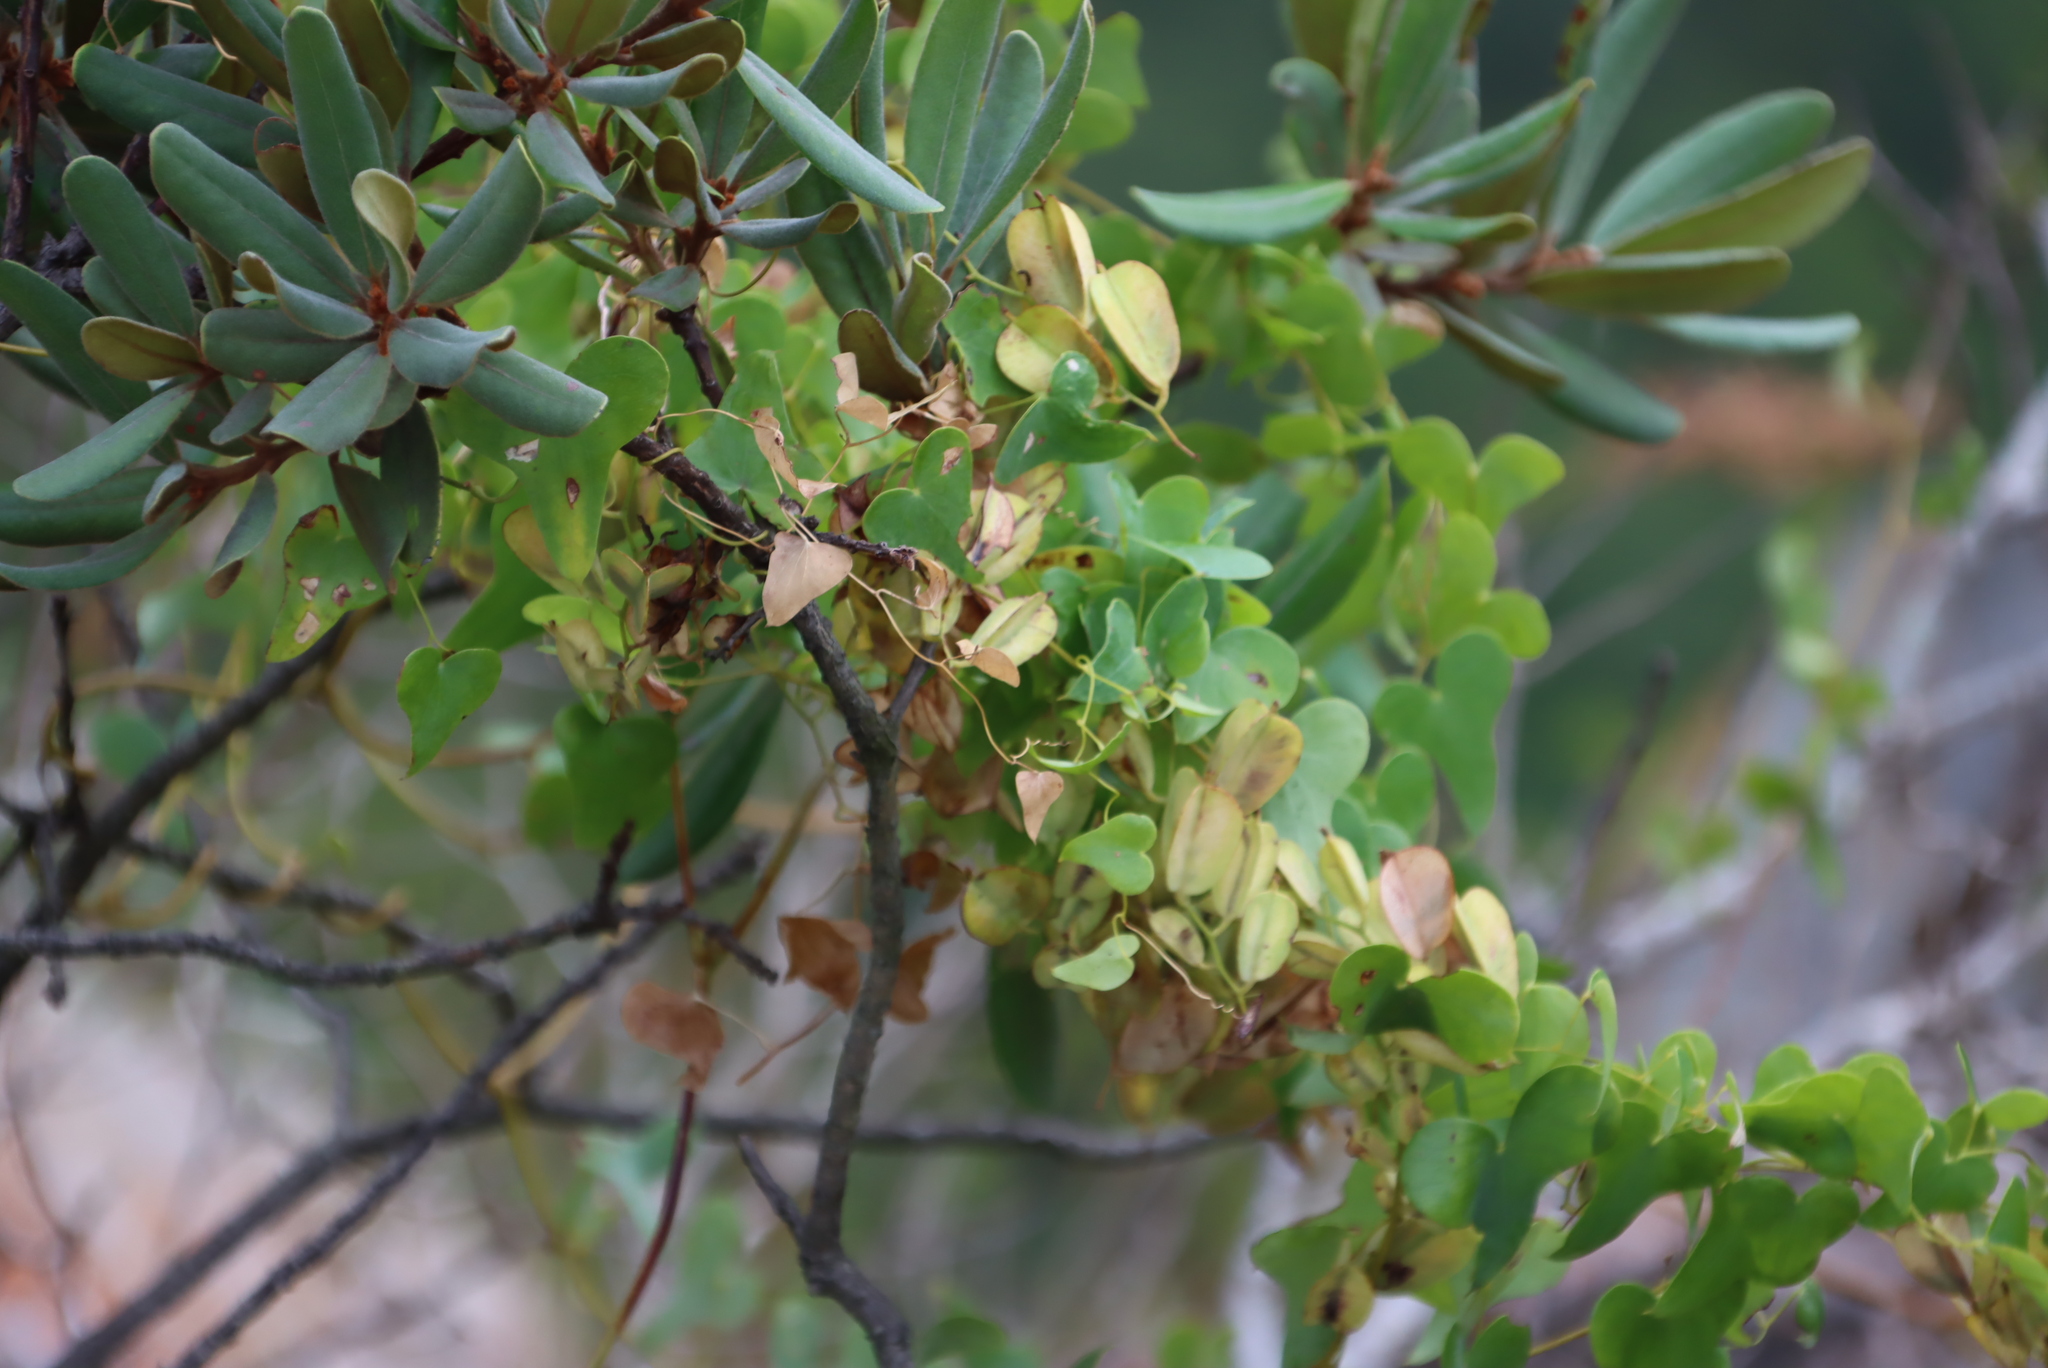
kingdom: Plantae
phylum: Tracheophyta
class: Liliopsida
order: Dioscoreales
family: Dioscoreaceae
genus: Dioscorea
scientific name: Dioscorea sylvatica
